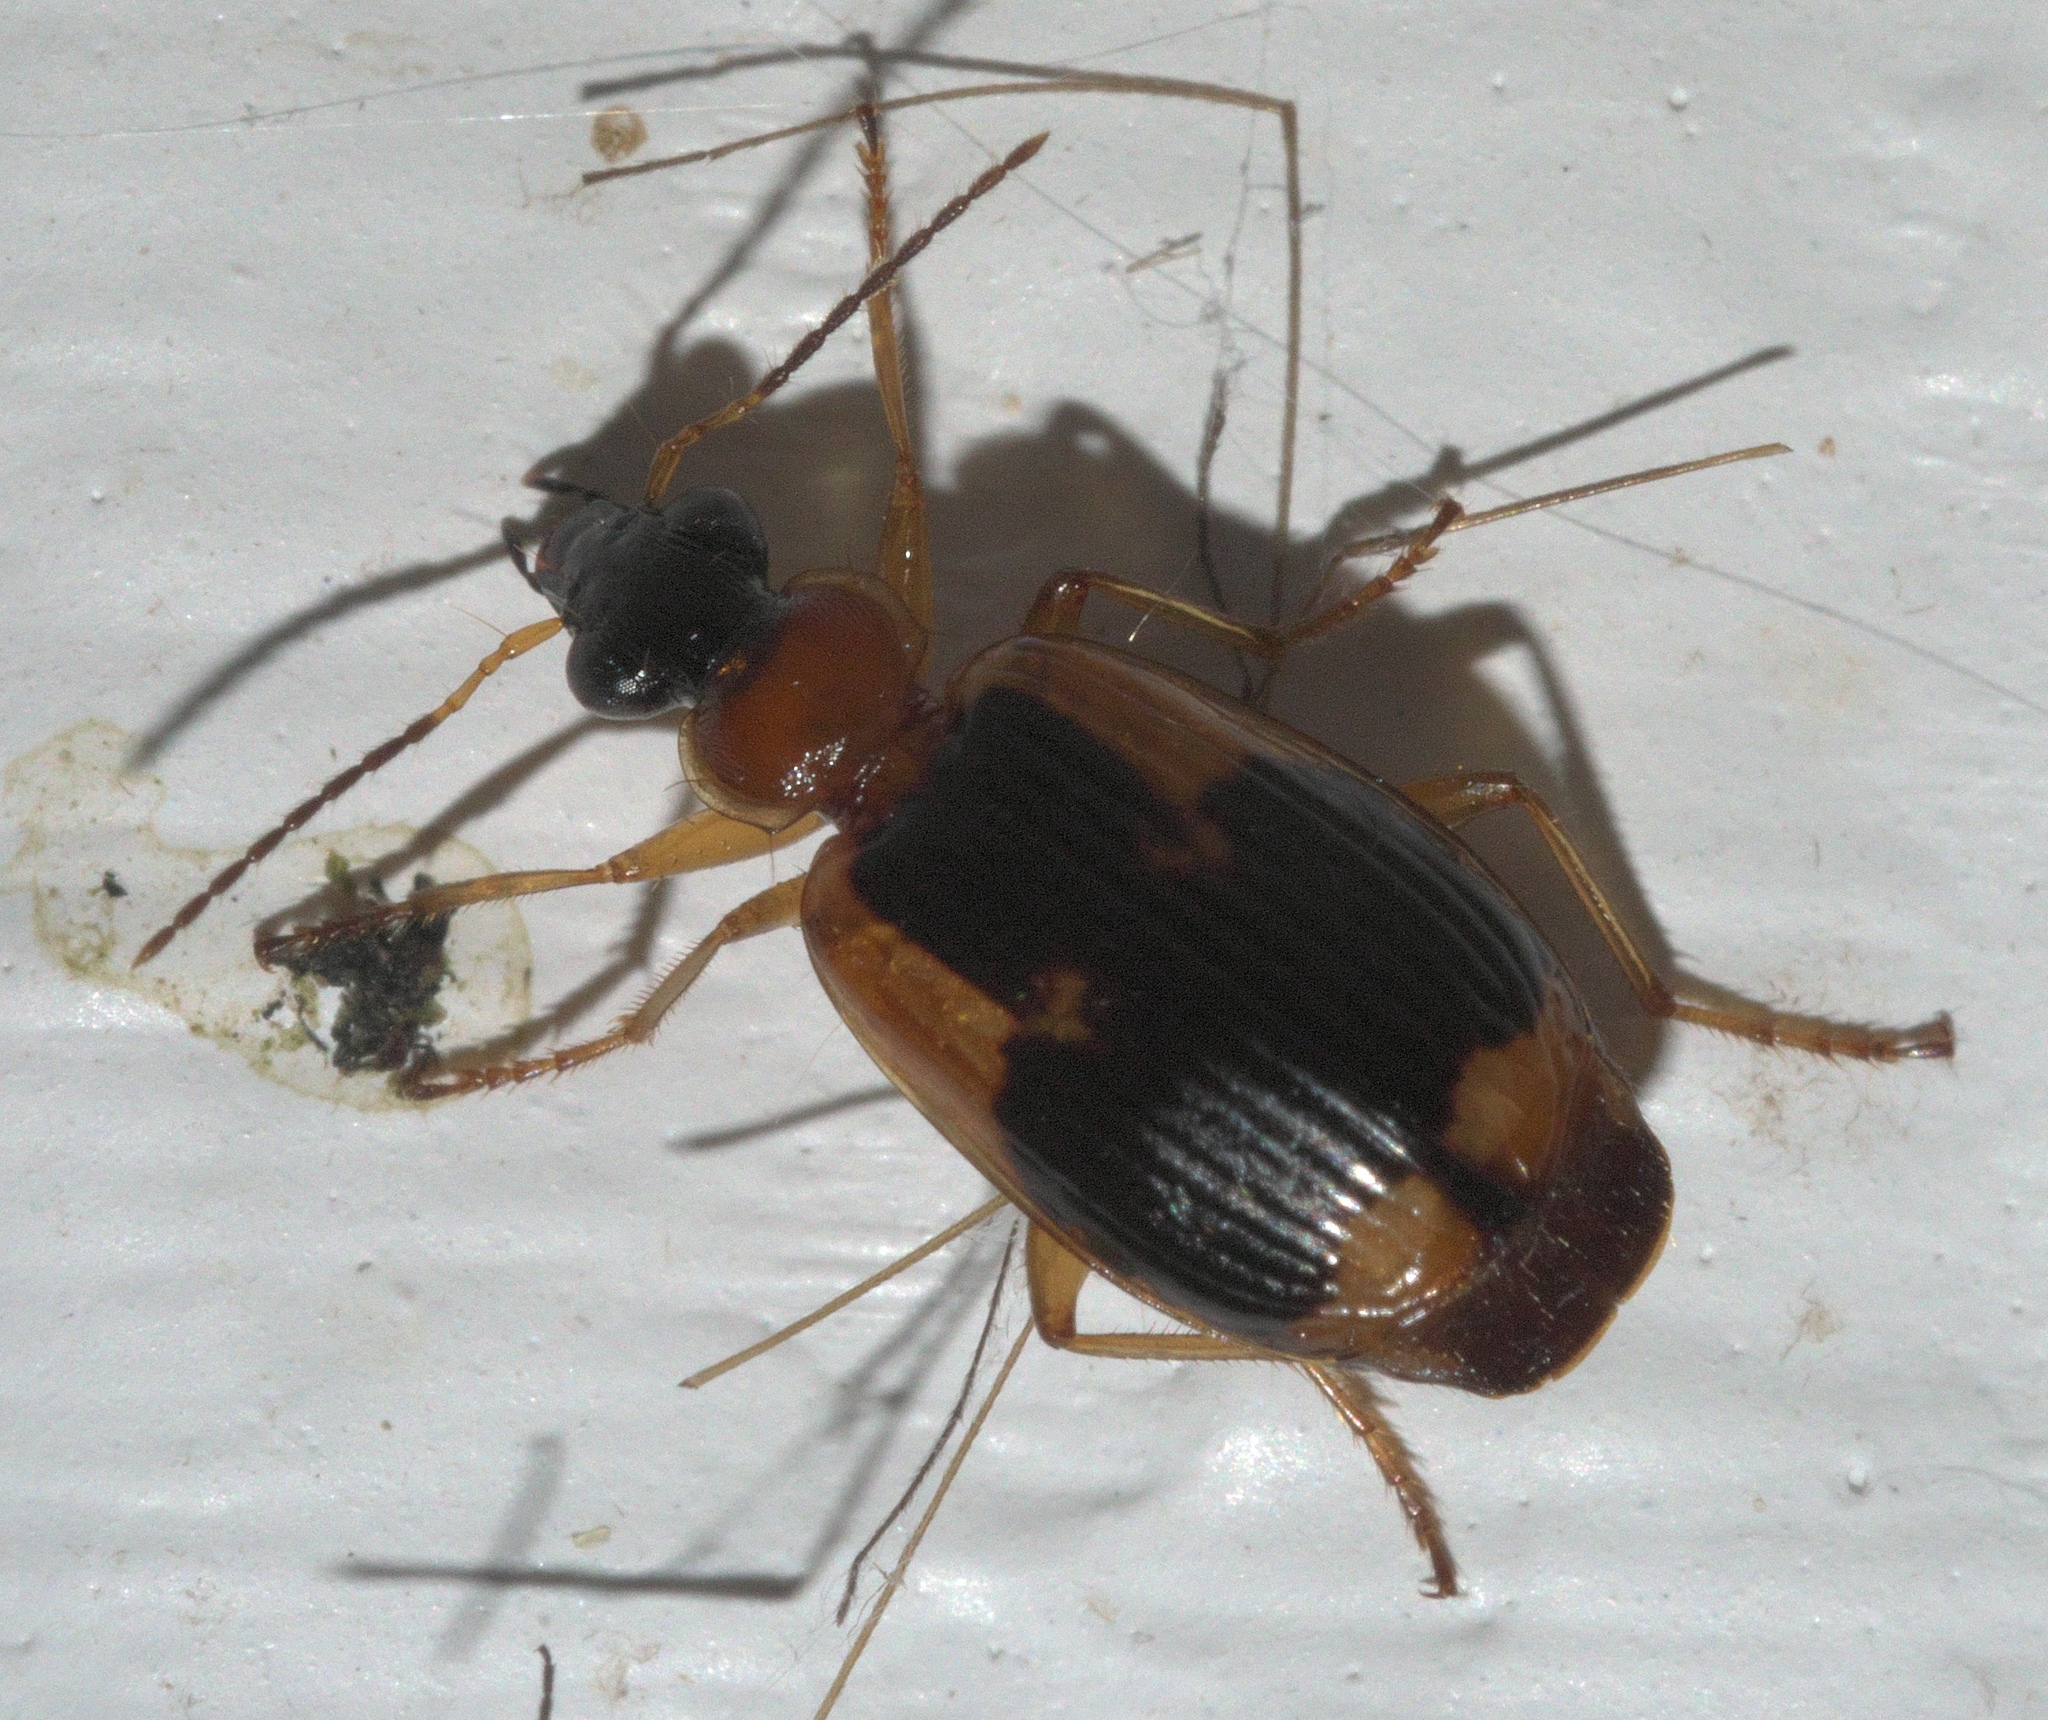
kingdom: Animalia
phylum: Arthropoda
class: Insecta
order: Coleoptera
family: Carabidae
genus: Lebia
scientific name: Lebia analis
